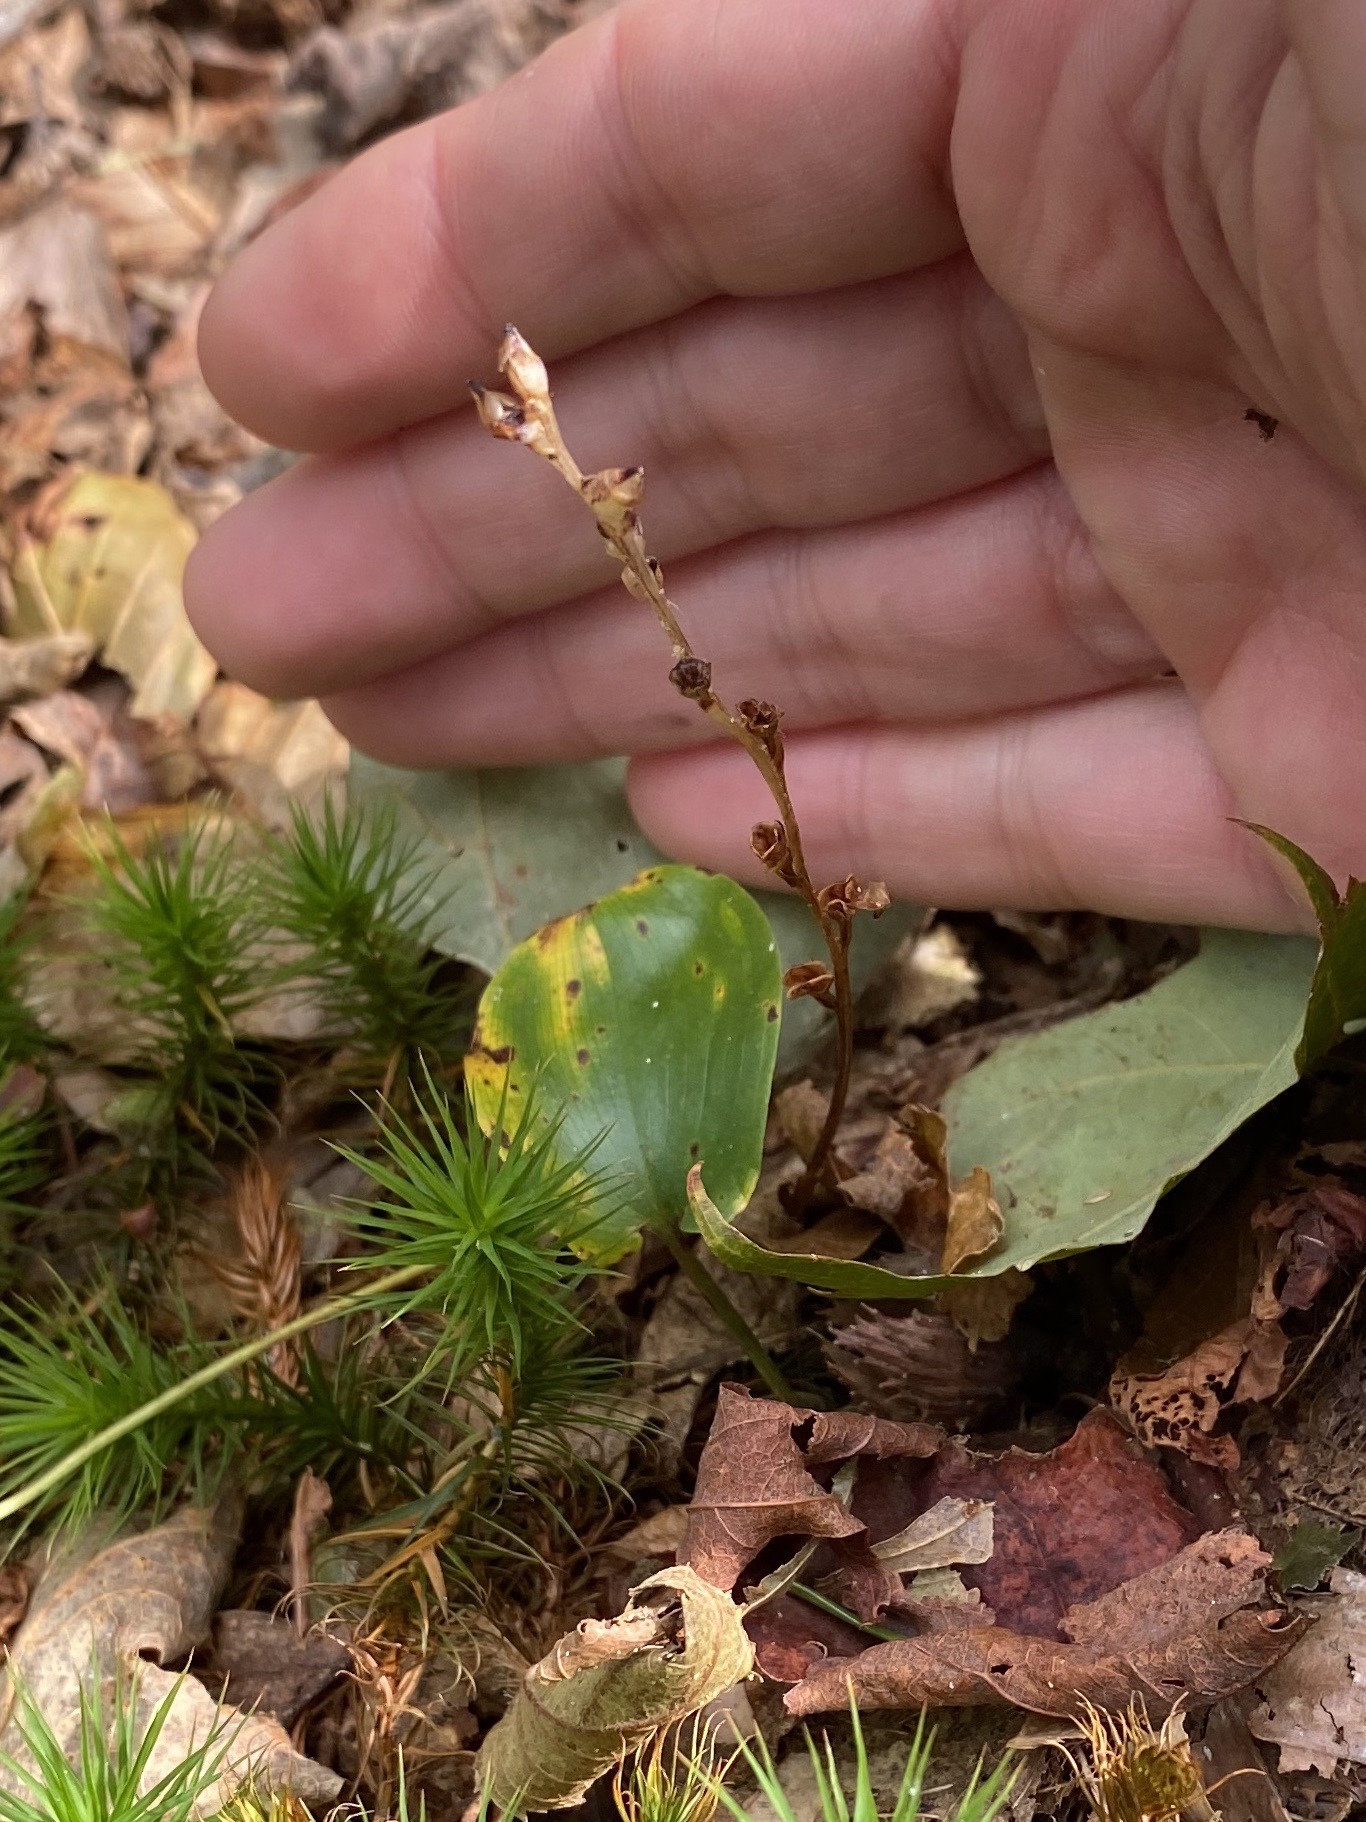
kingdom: Plantae
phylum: Tracheophyta
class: Magnoliopsida
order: Lamiales
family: Orobanchaceae
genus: Epifagus
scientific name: Epifagus virginiana
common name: Beechdrops
